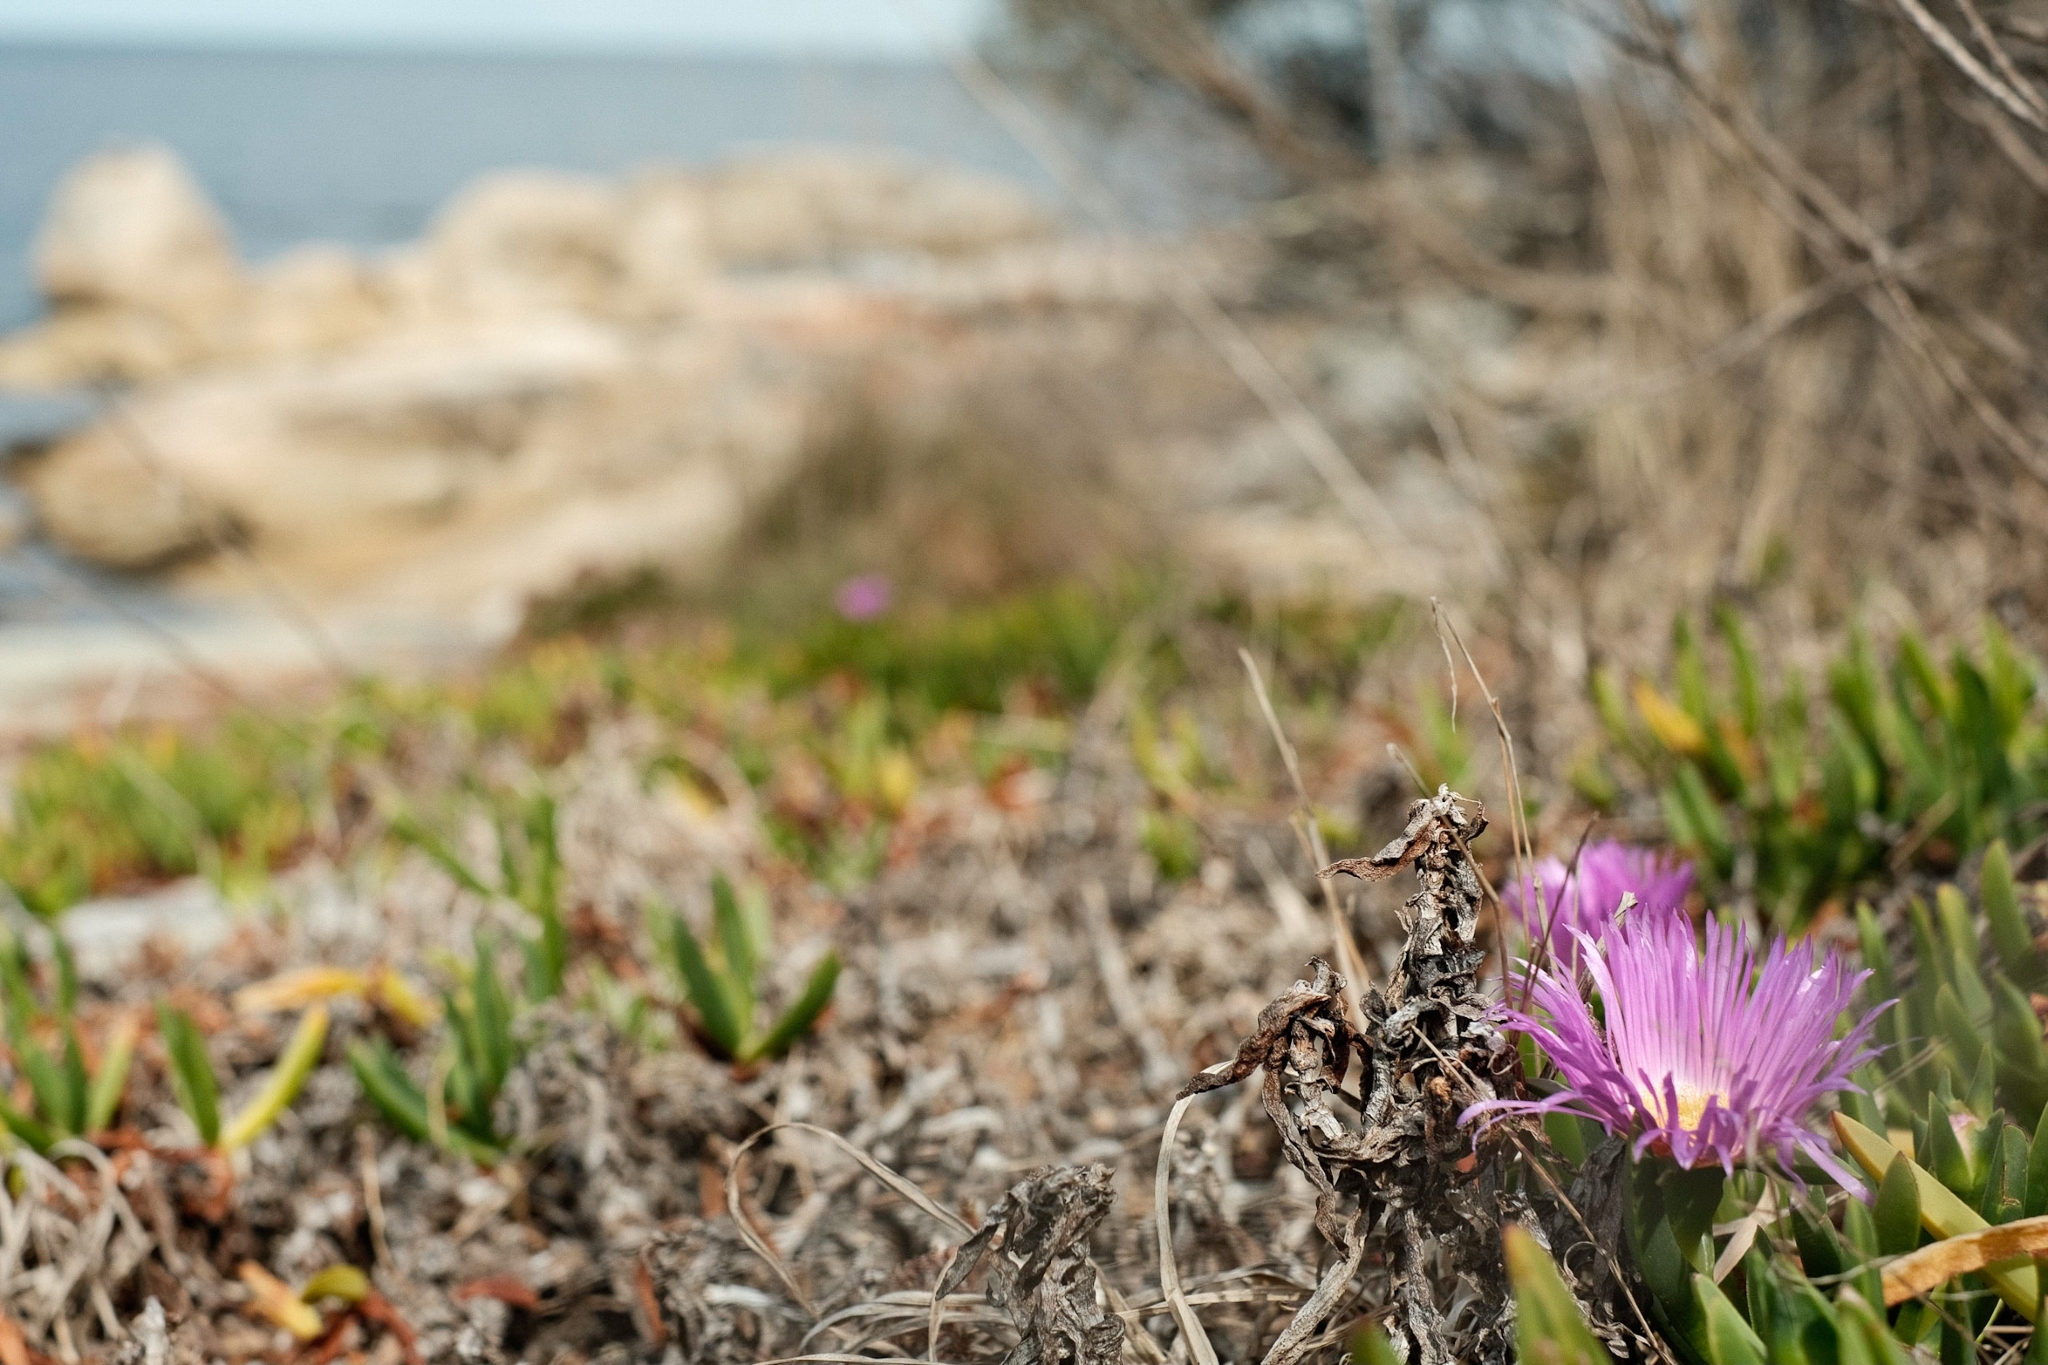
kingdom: Plantae
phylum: Tracheophyta
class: Magnoliopsida
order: Caryophyllales
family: Aizoaceae
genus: Carpobrotus
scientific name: Carpobrotus rossii
